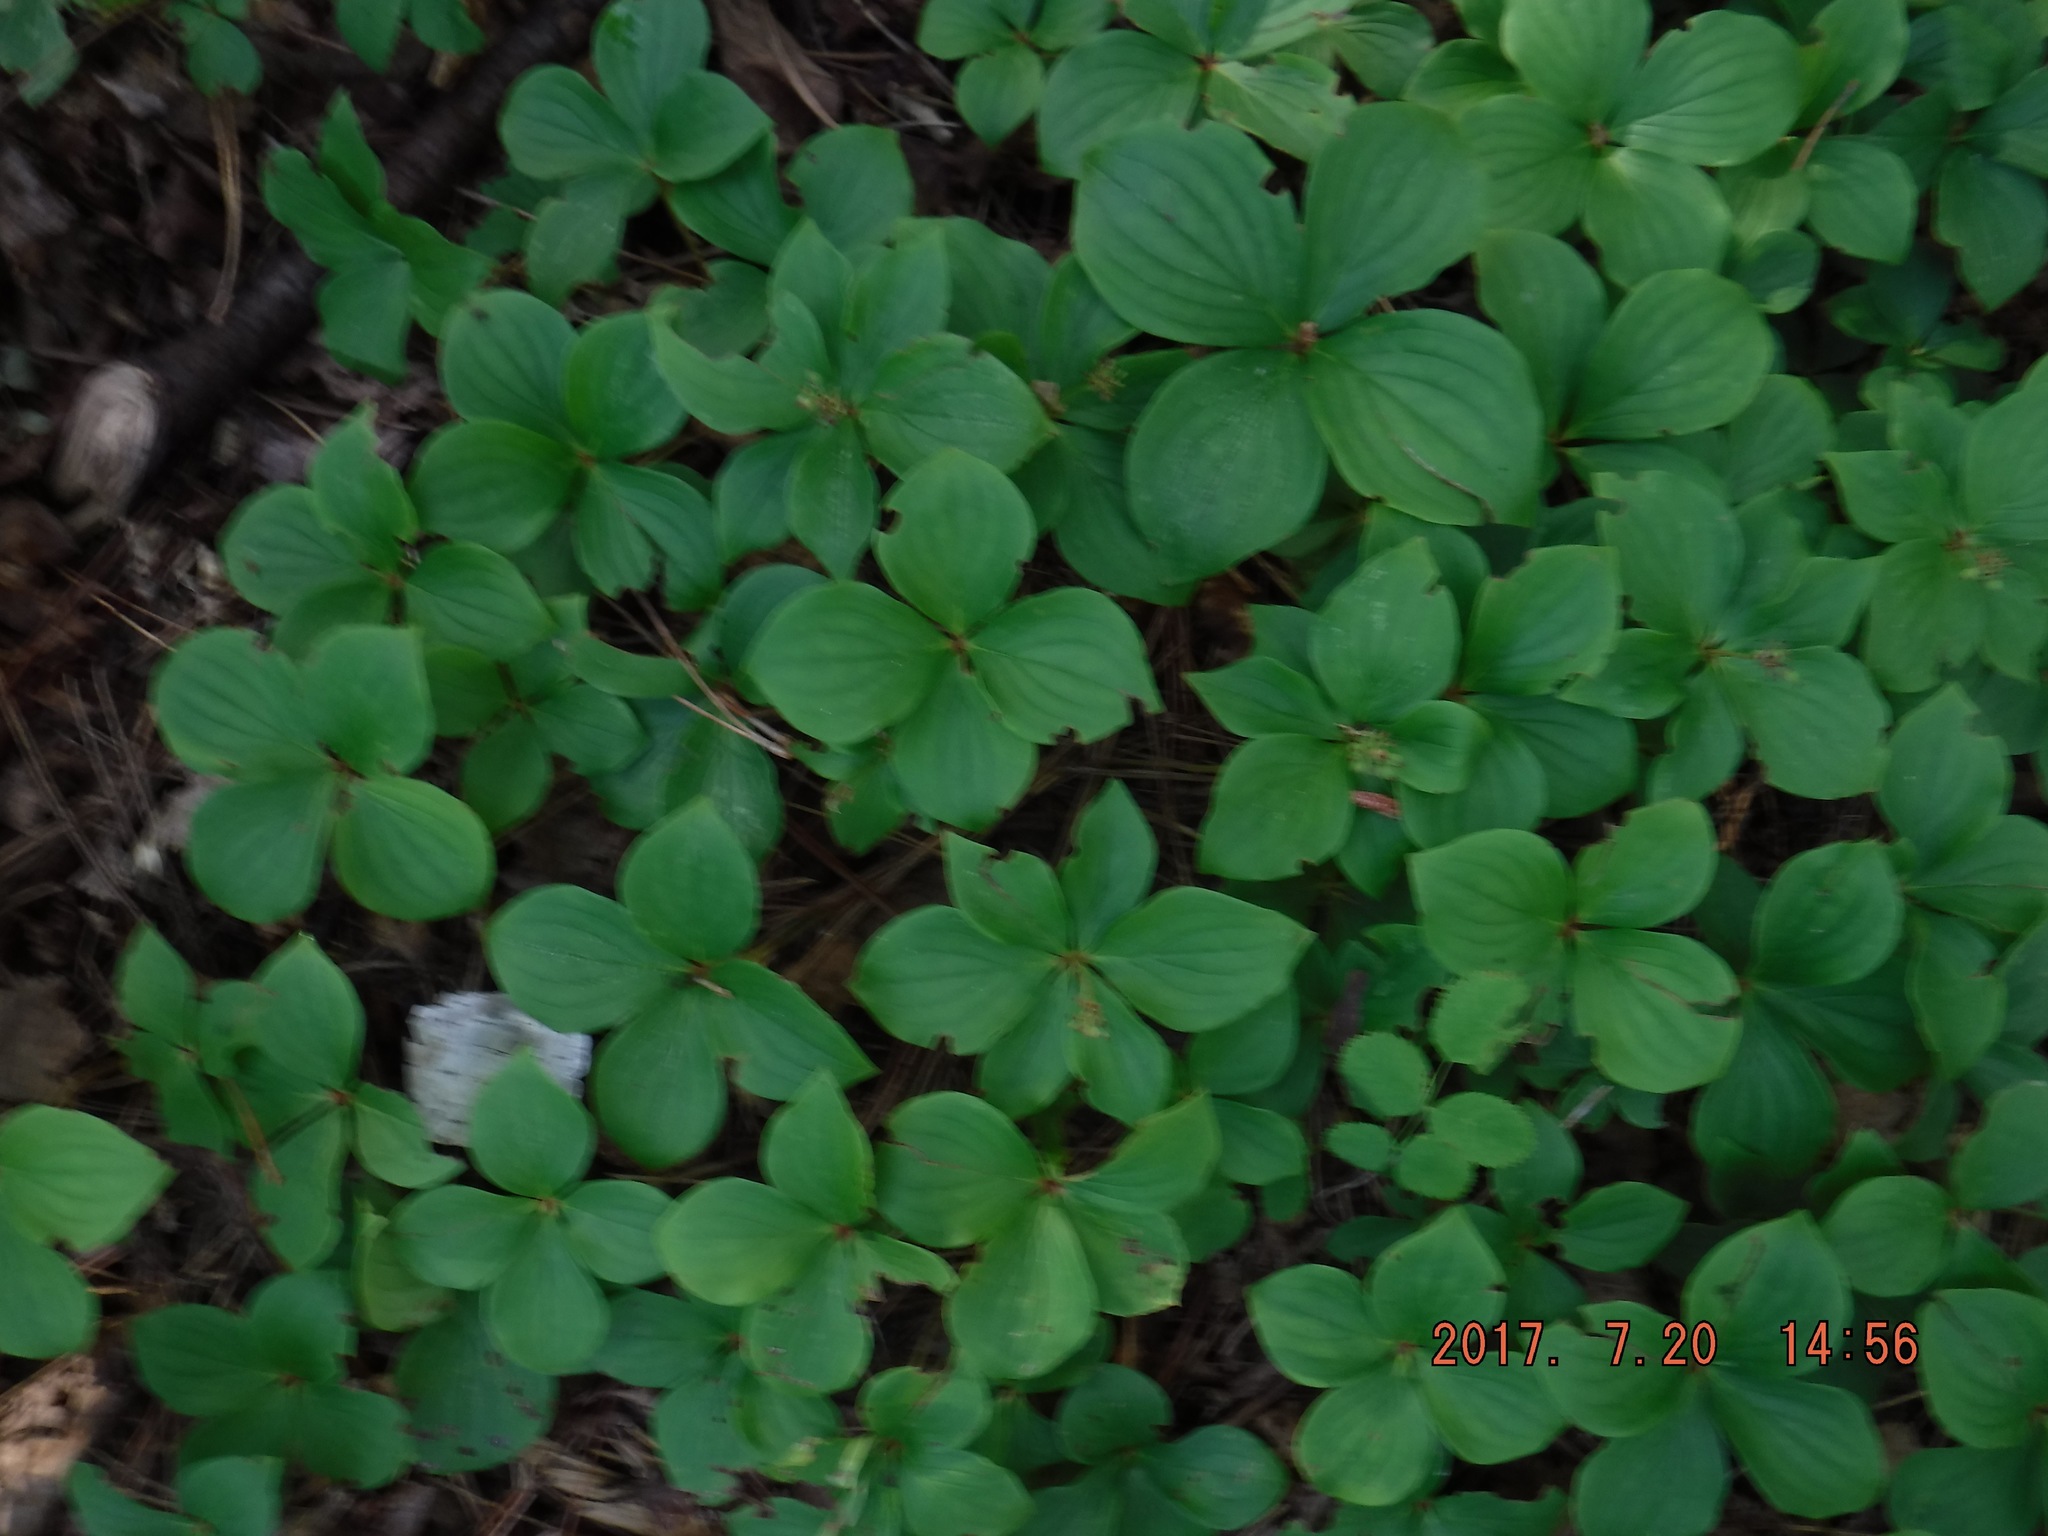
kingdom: Plantae
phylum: Tracheophyta
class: Magnoliopsida
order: Cornales
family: Cornaceae
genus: Cornus
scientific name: Cornus canadensis
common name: Creeping dogwood
